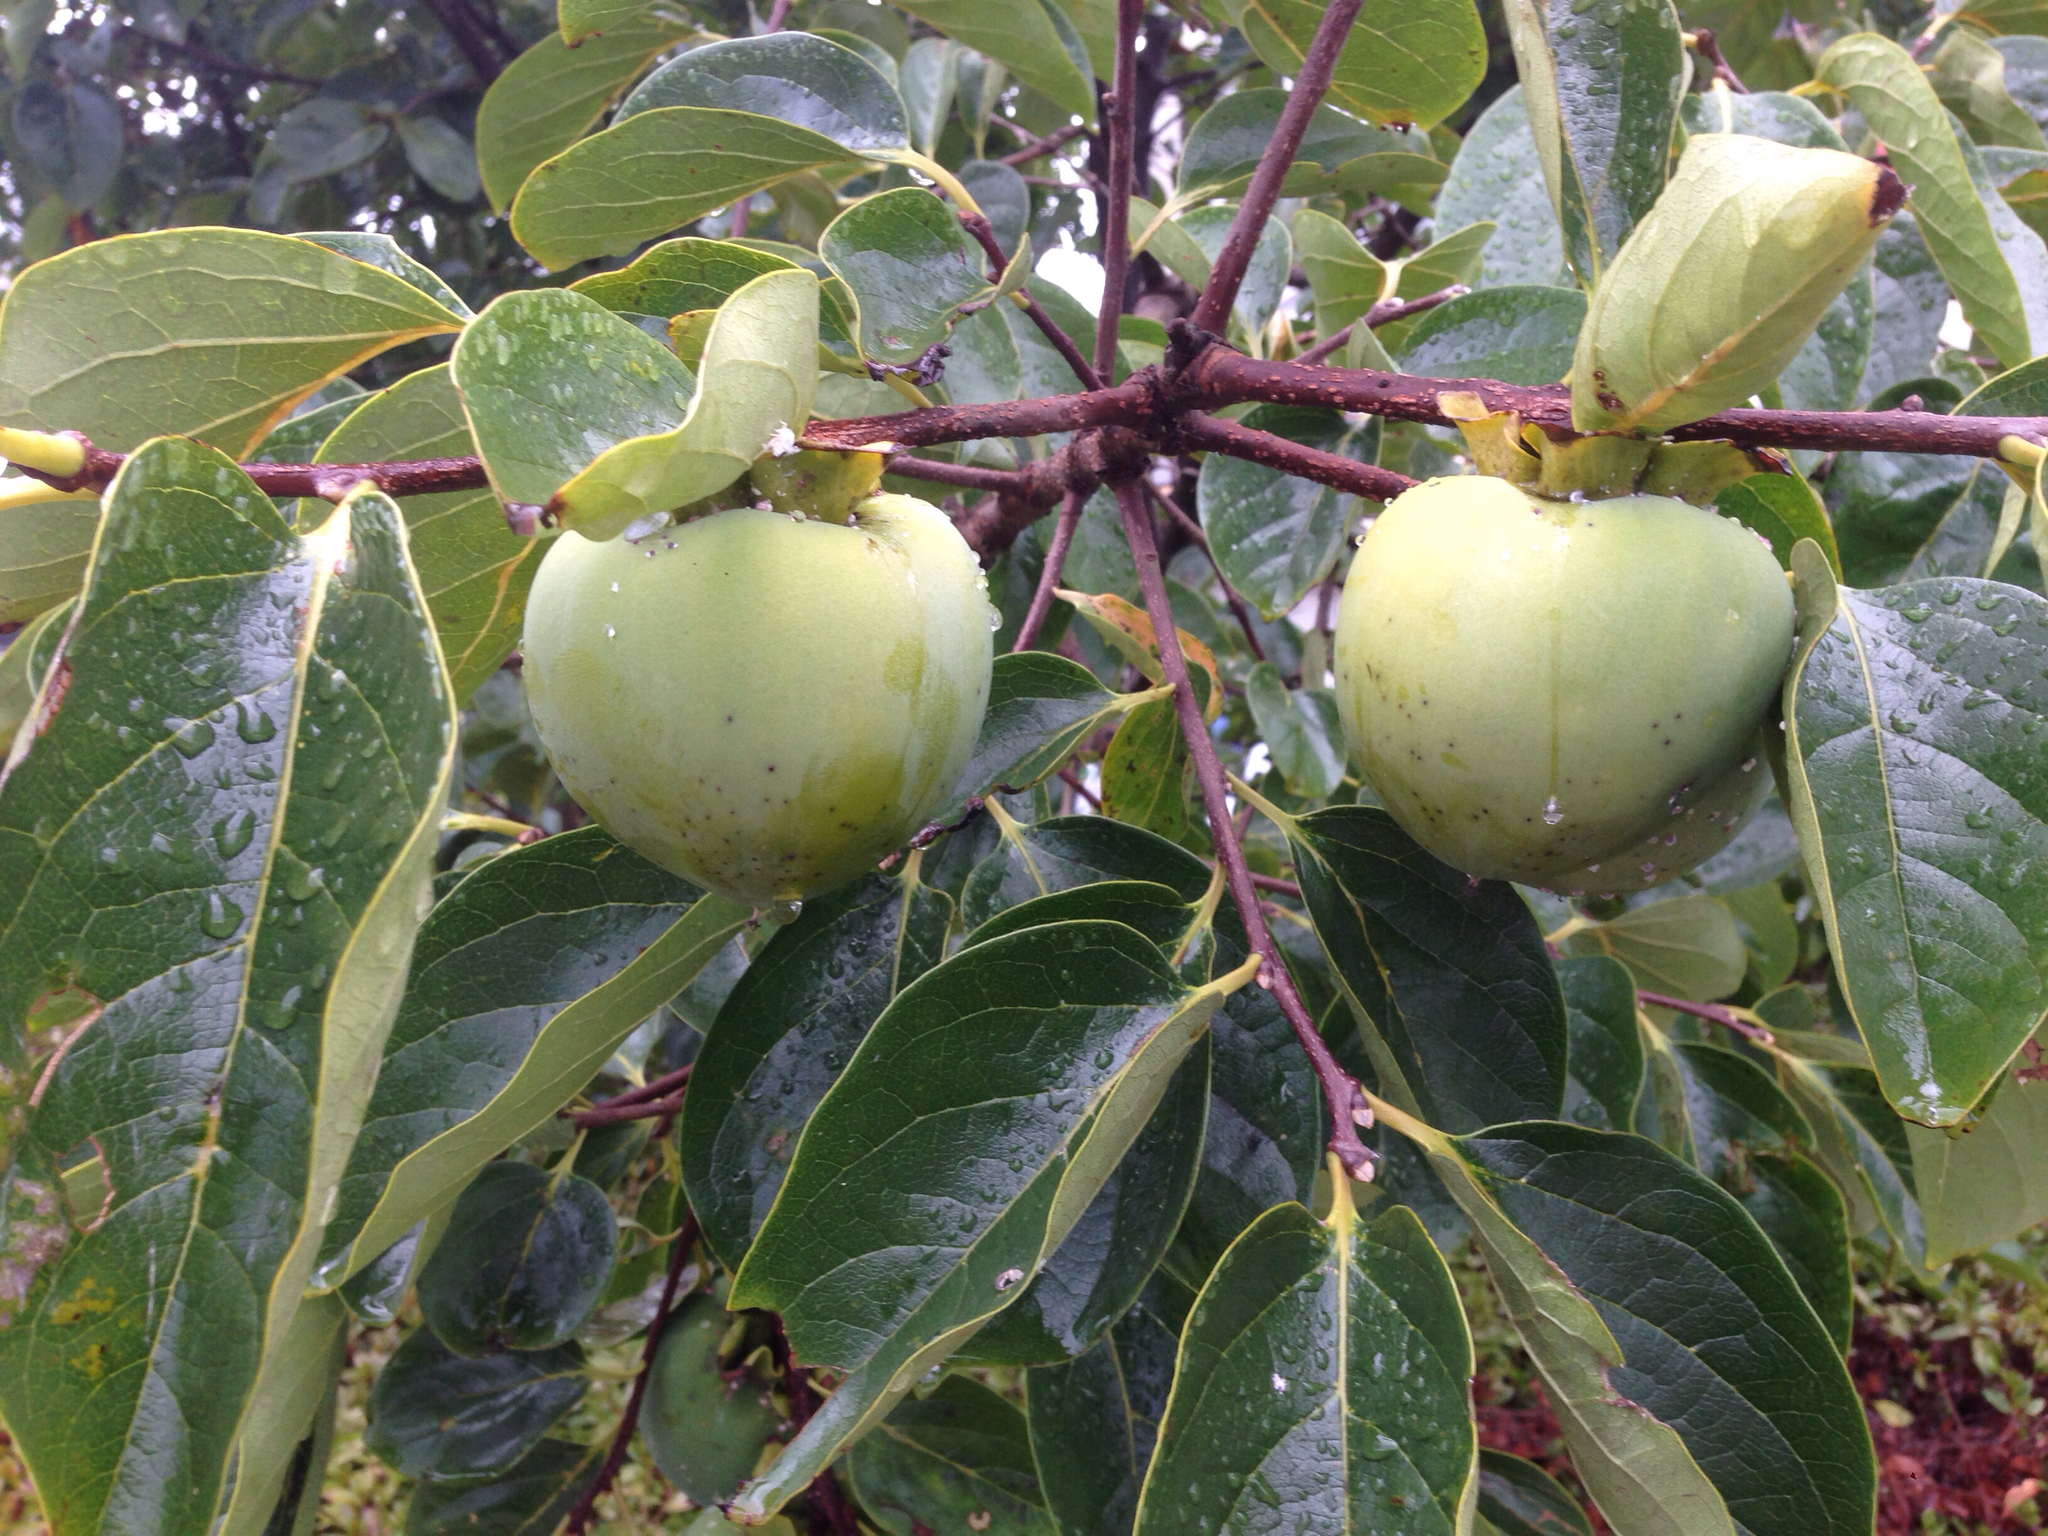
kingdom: Plantae
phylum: Tracheophyta
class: Magnoliopsida
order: Ericales
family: Ebenaceae
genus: Diospyros
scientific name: Diospyros kaki
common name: Persimmon
